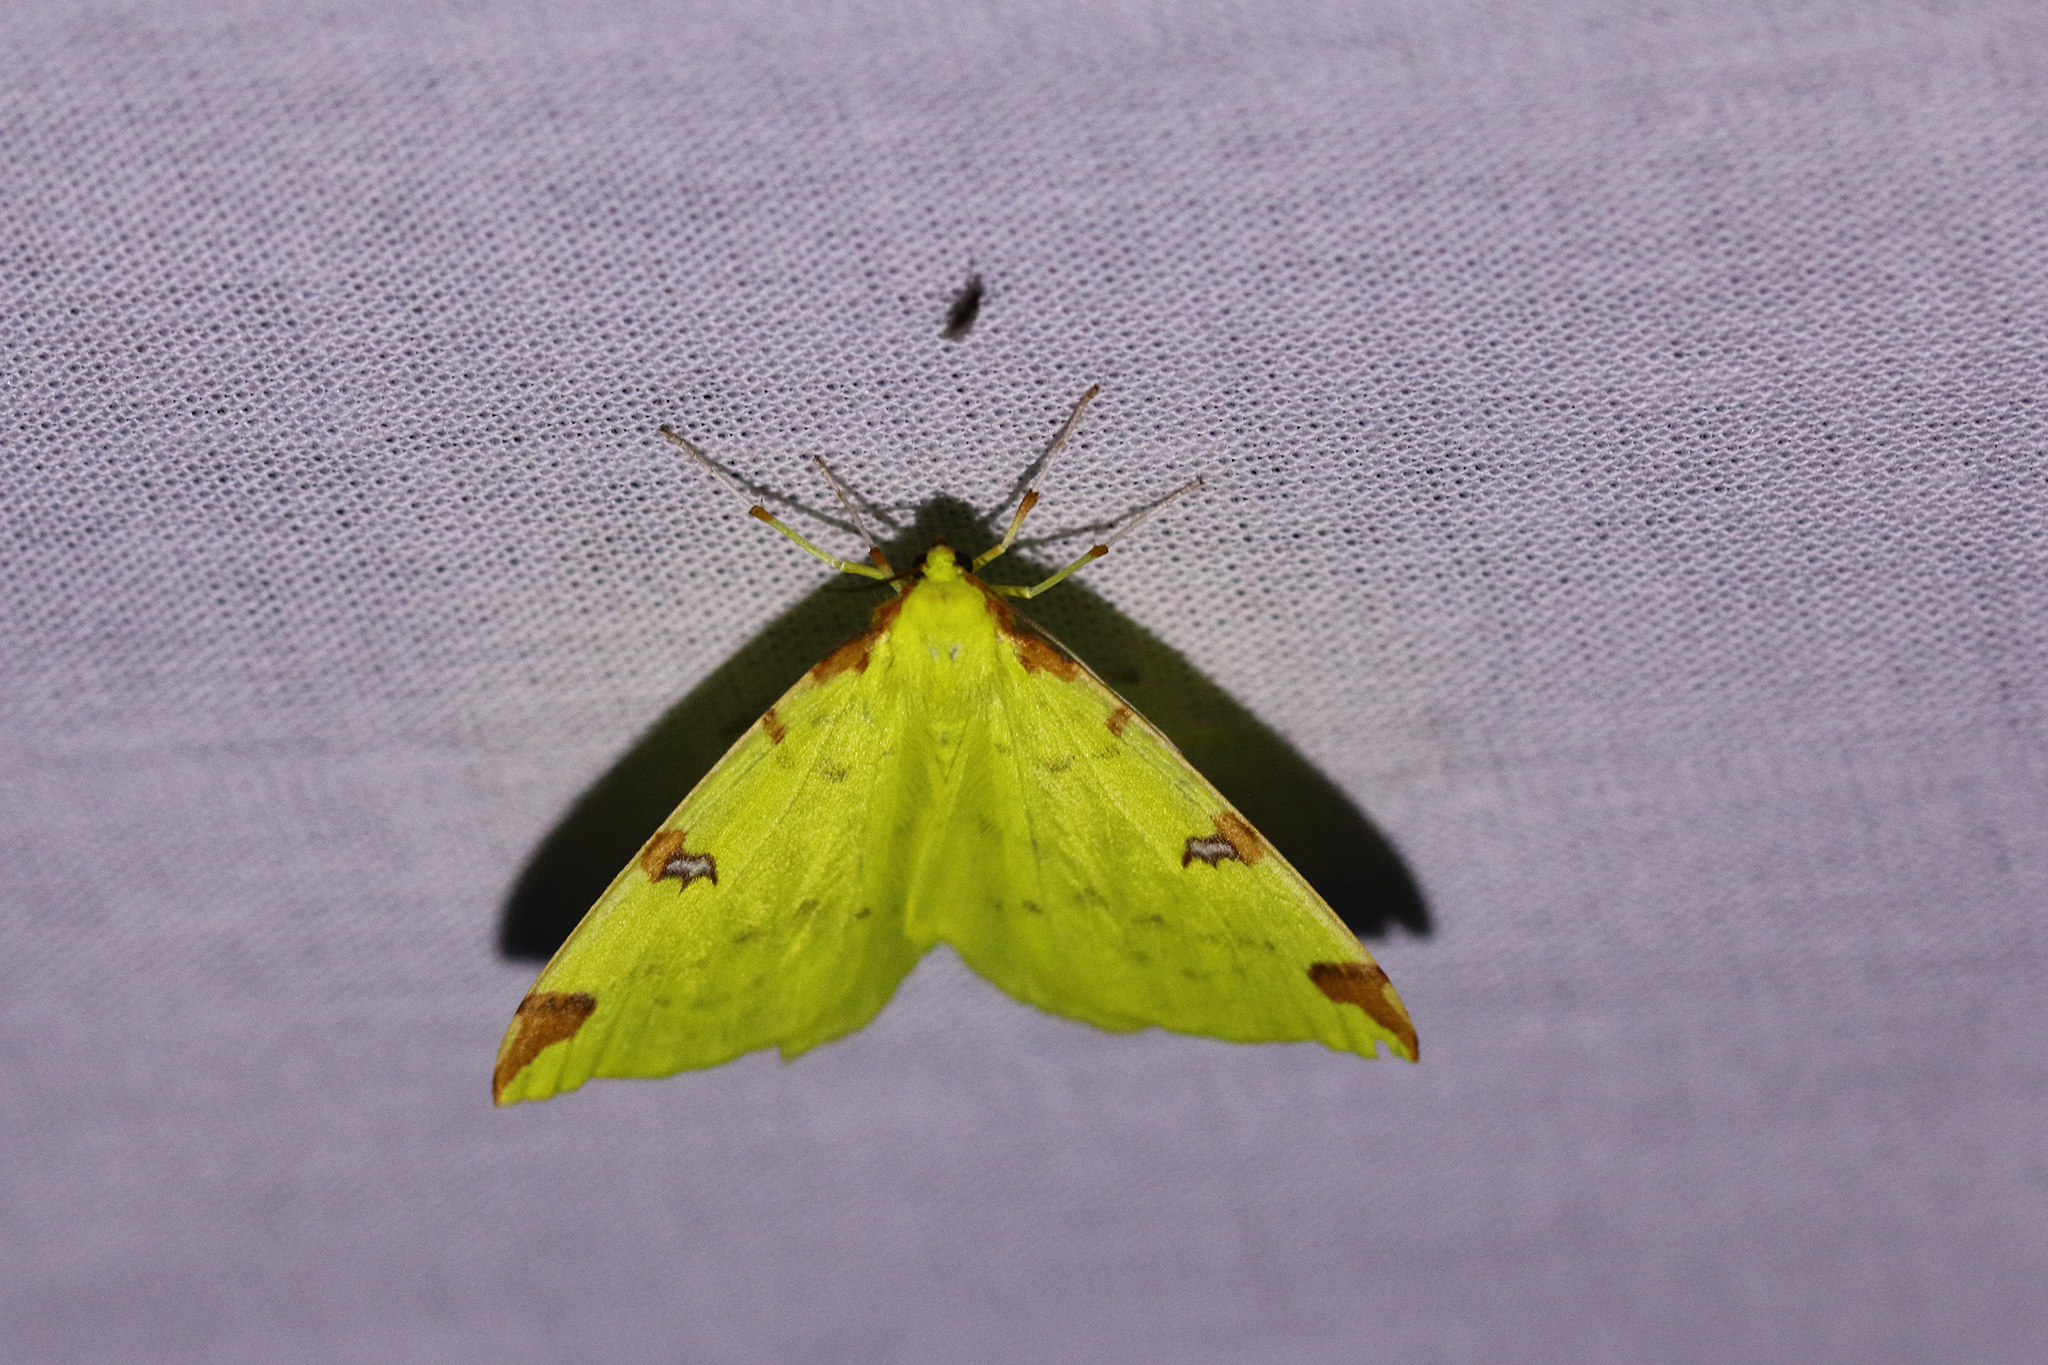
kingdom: Animalia
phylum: Arthropoda
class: Insecta
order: Lepidoptera
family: Geometridae
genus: Opisthograptis
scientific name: Opisthograptis luteolata
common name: Brimstone moth
